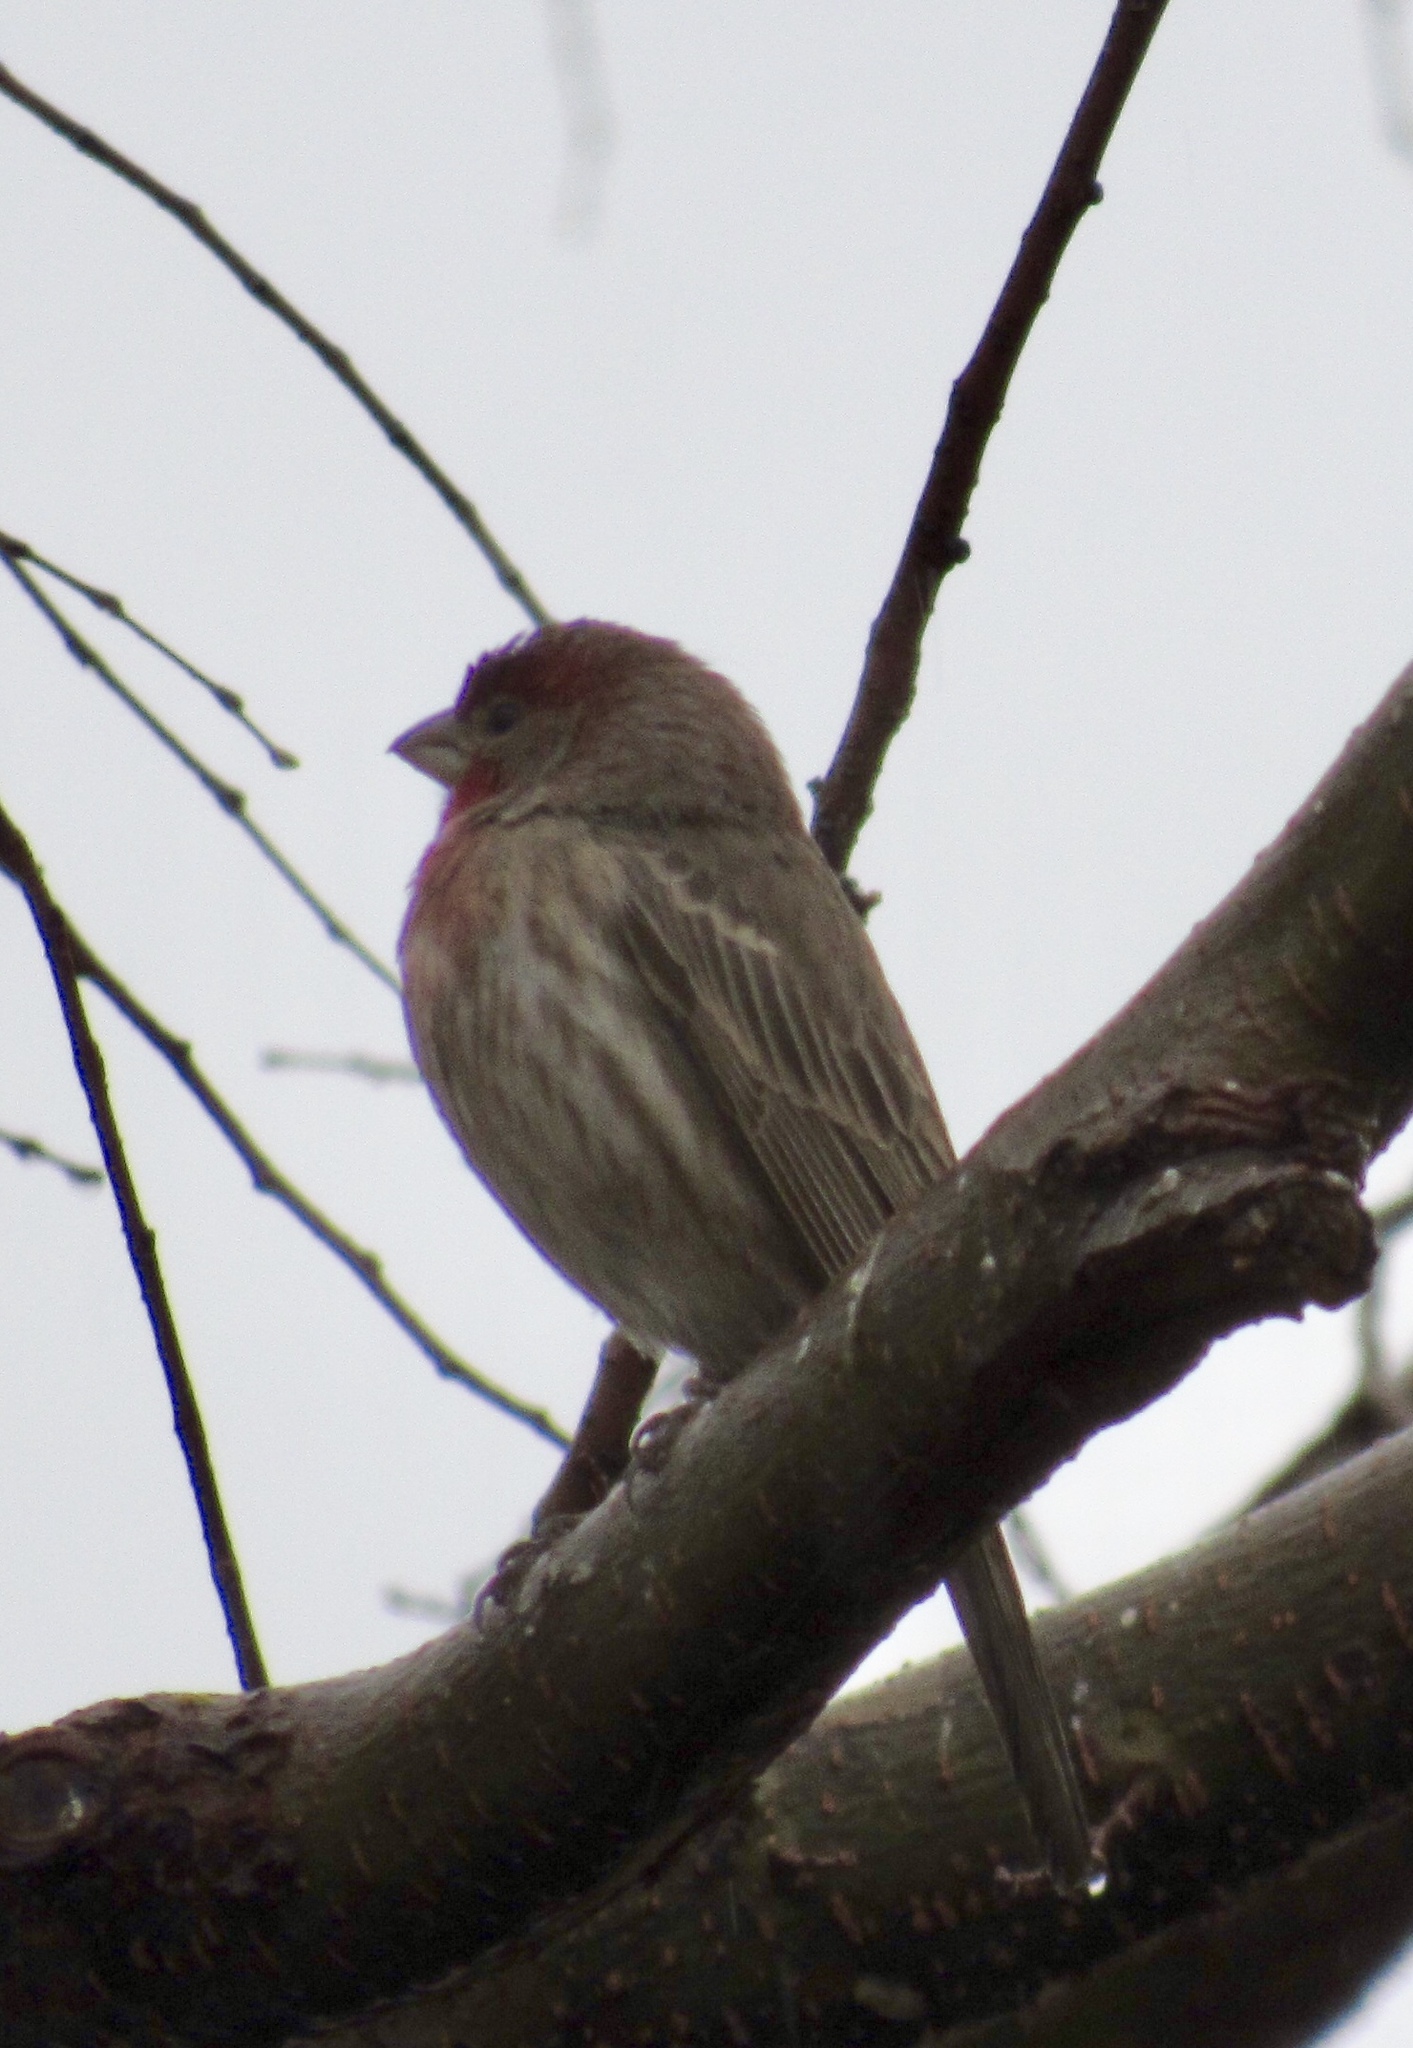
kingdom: Animalia
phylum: Chordata
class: Aves
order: Passeriformes
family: Fringillidae
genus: Haemorhous
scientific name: Haemorhous mexicanus
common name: House finch
